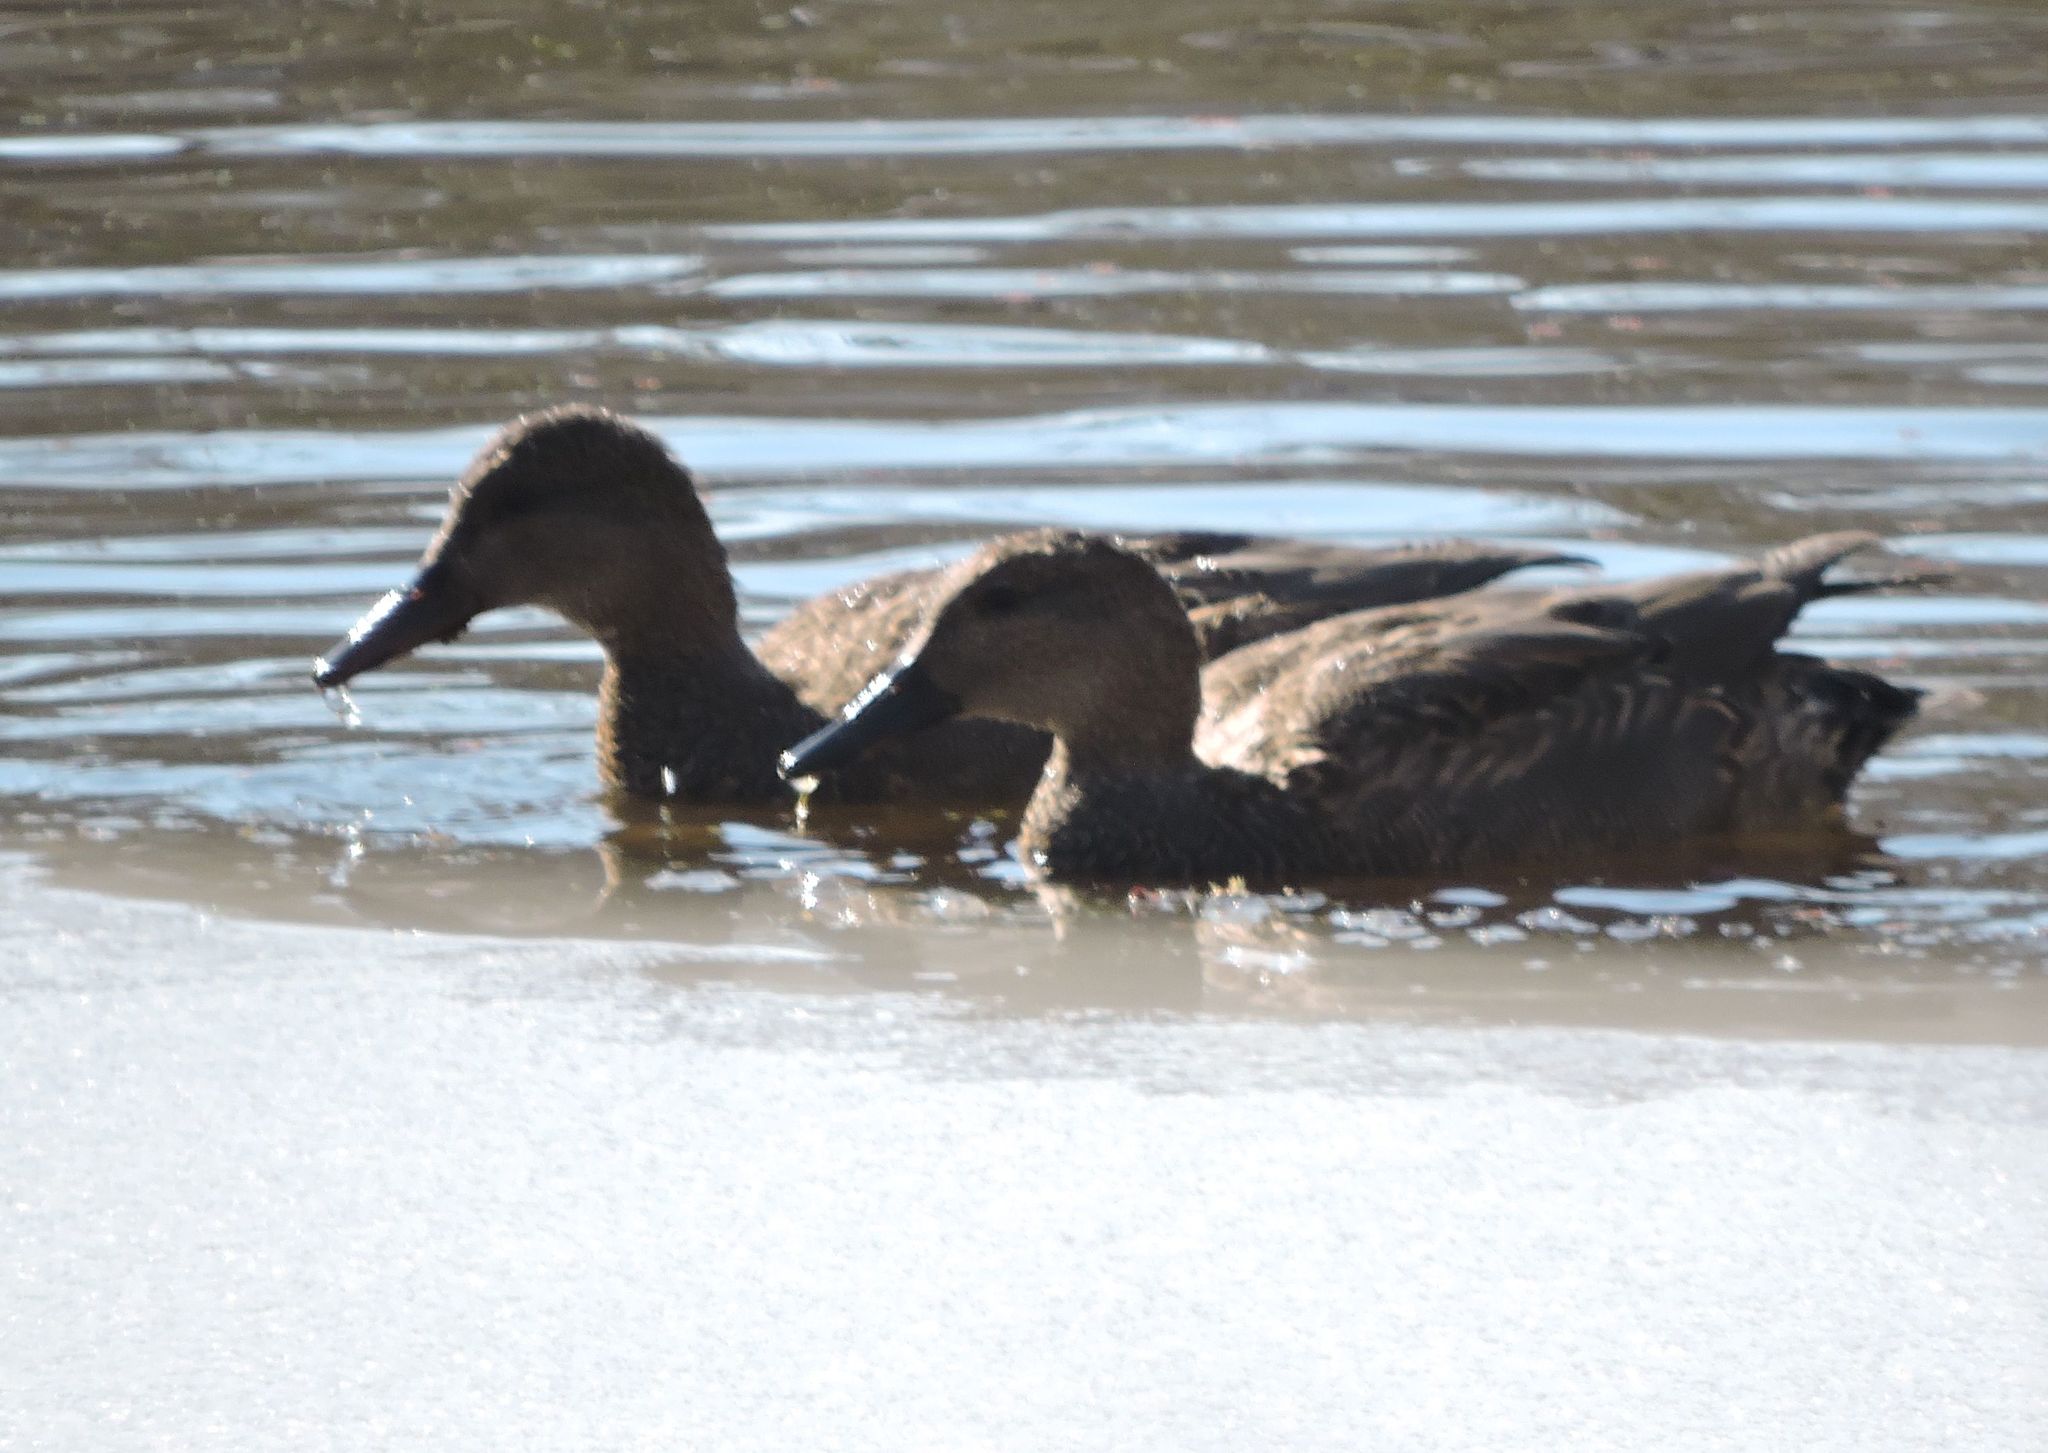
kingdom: Animalia
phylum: Chordata
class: Aves
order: Anseriformes
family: Anatidae
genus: Mareca
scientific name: Mareca strepera
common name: Gadwall
